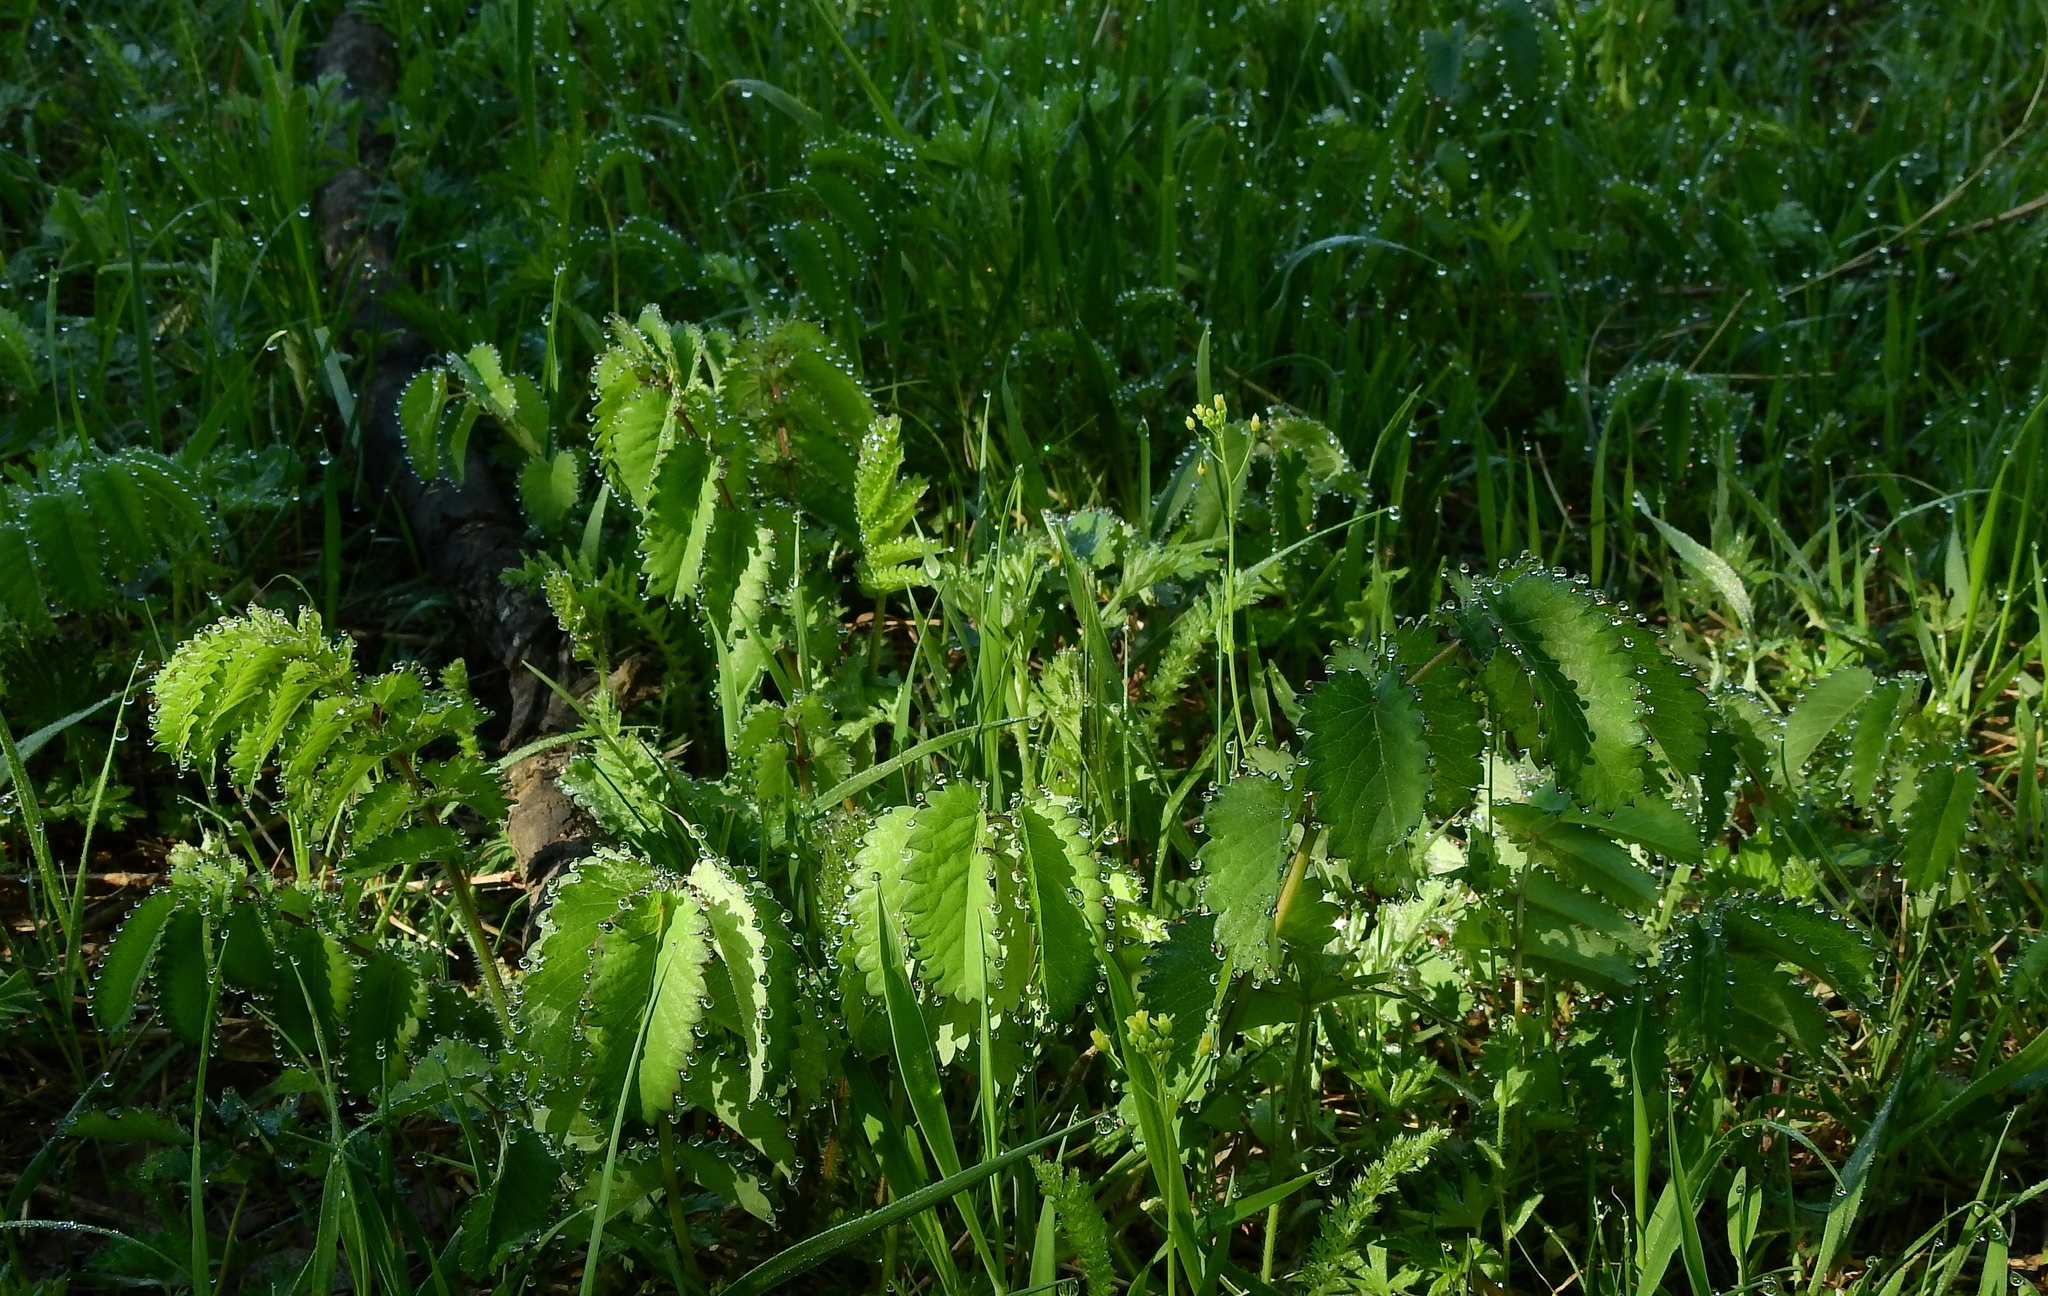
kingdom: Plantae
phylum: Tracheophyta
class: Magnoliopsida
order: Rosales
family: Rosaceae
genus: Sanguisorba
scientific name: Sanguisorba officinalis
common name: Great burnet
